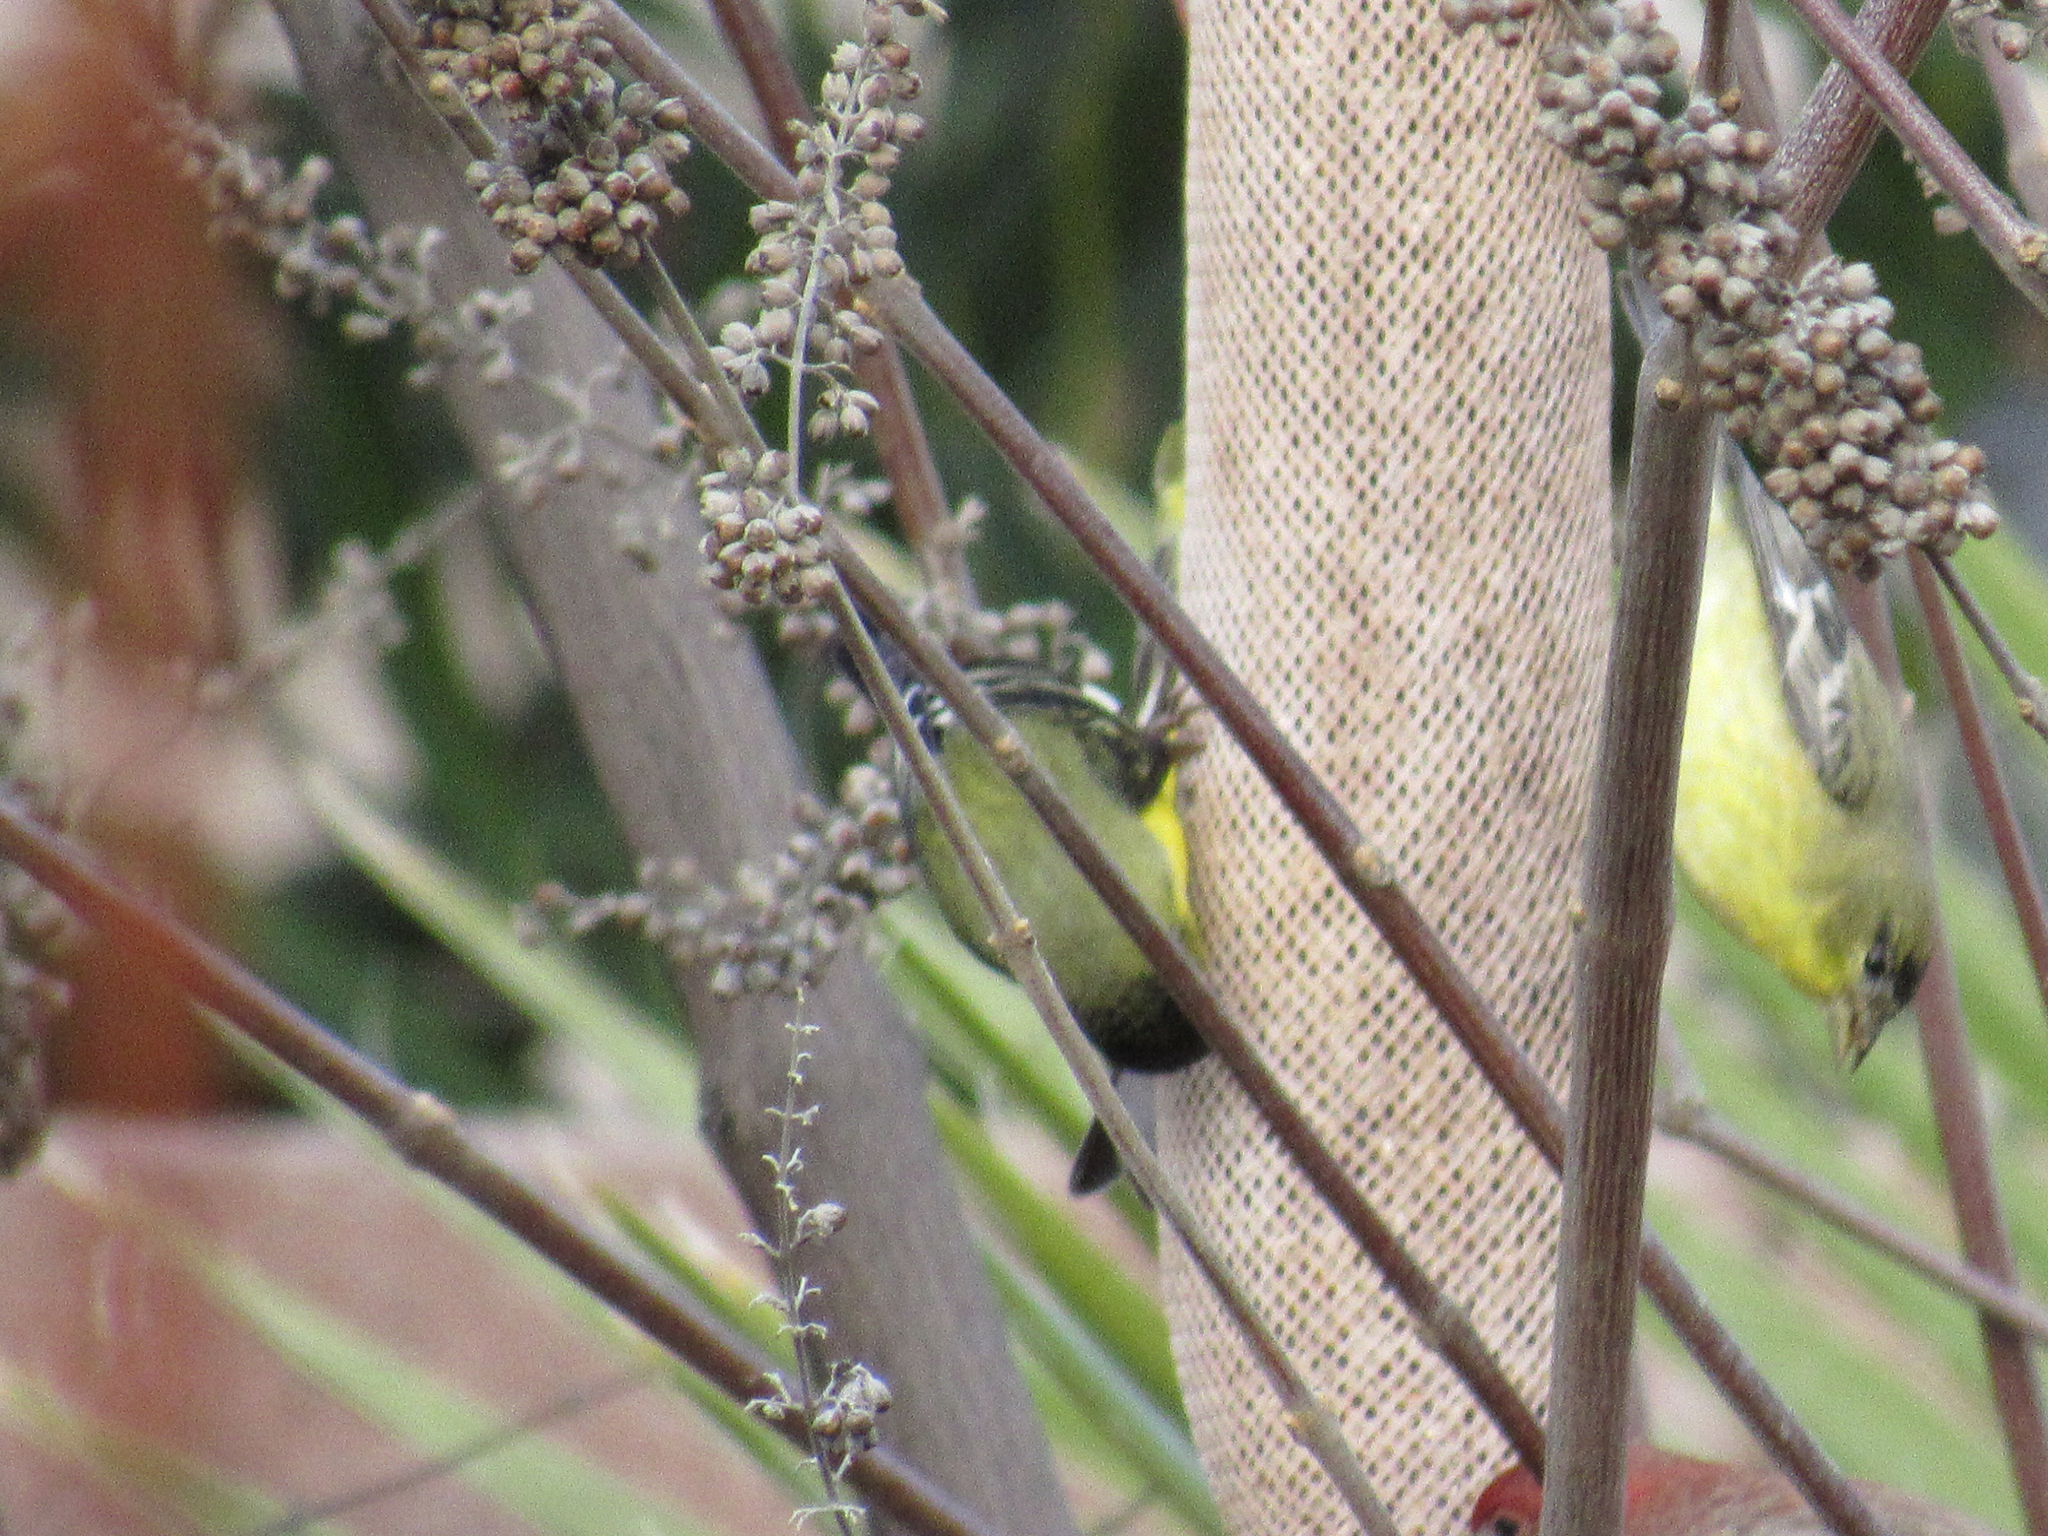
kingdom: Animalia
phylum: Chordata
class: Aves
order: Passeriformes
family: Fringillidae
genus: Spinus
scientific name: Spinus psaltria
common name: Lesser goldfinch
